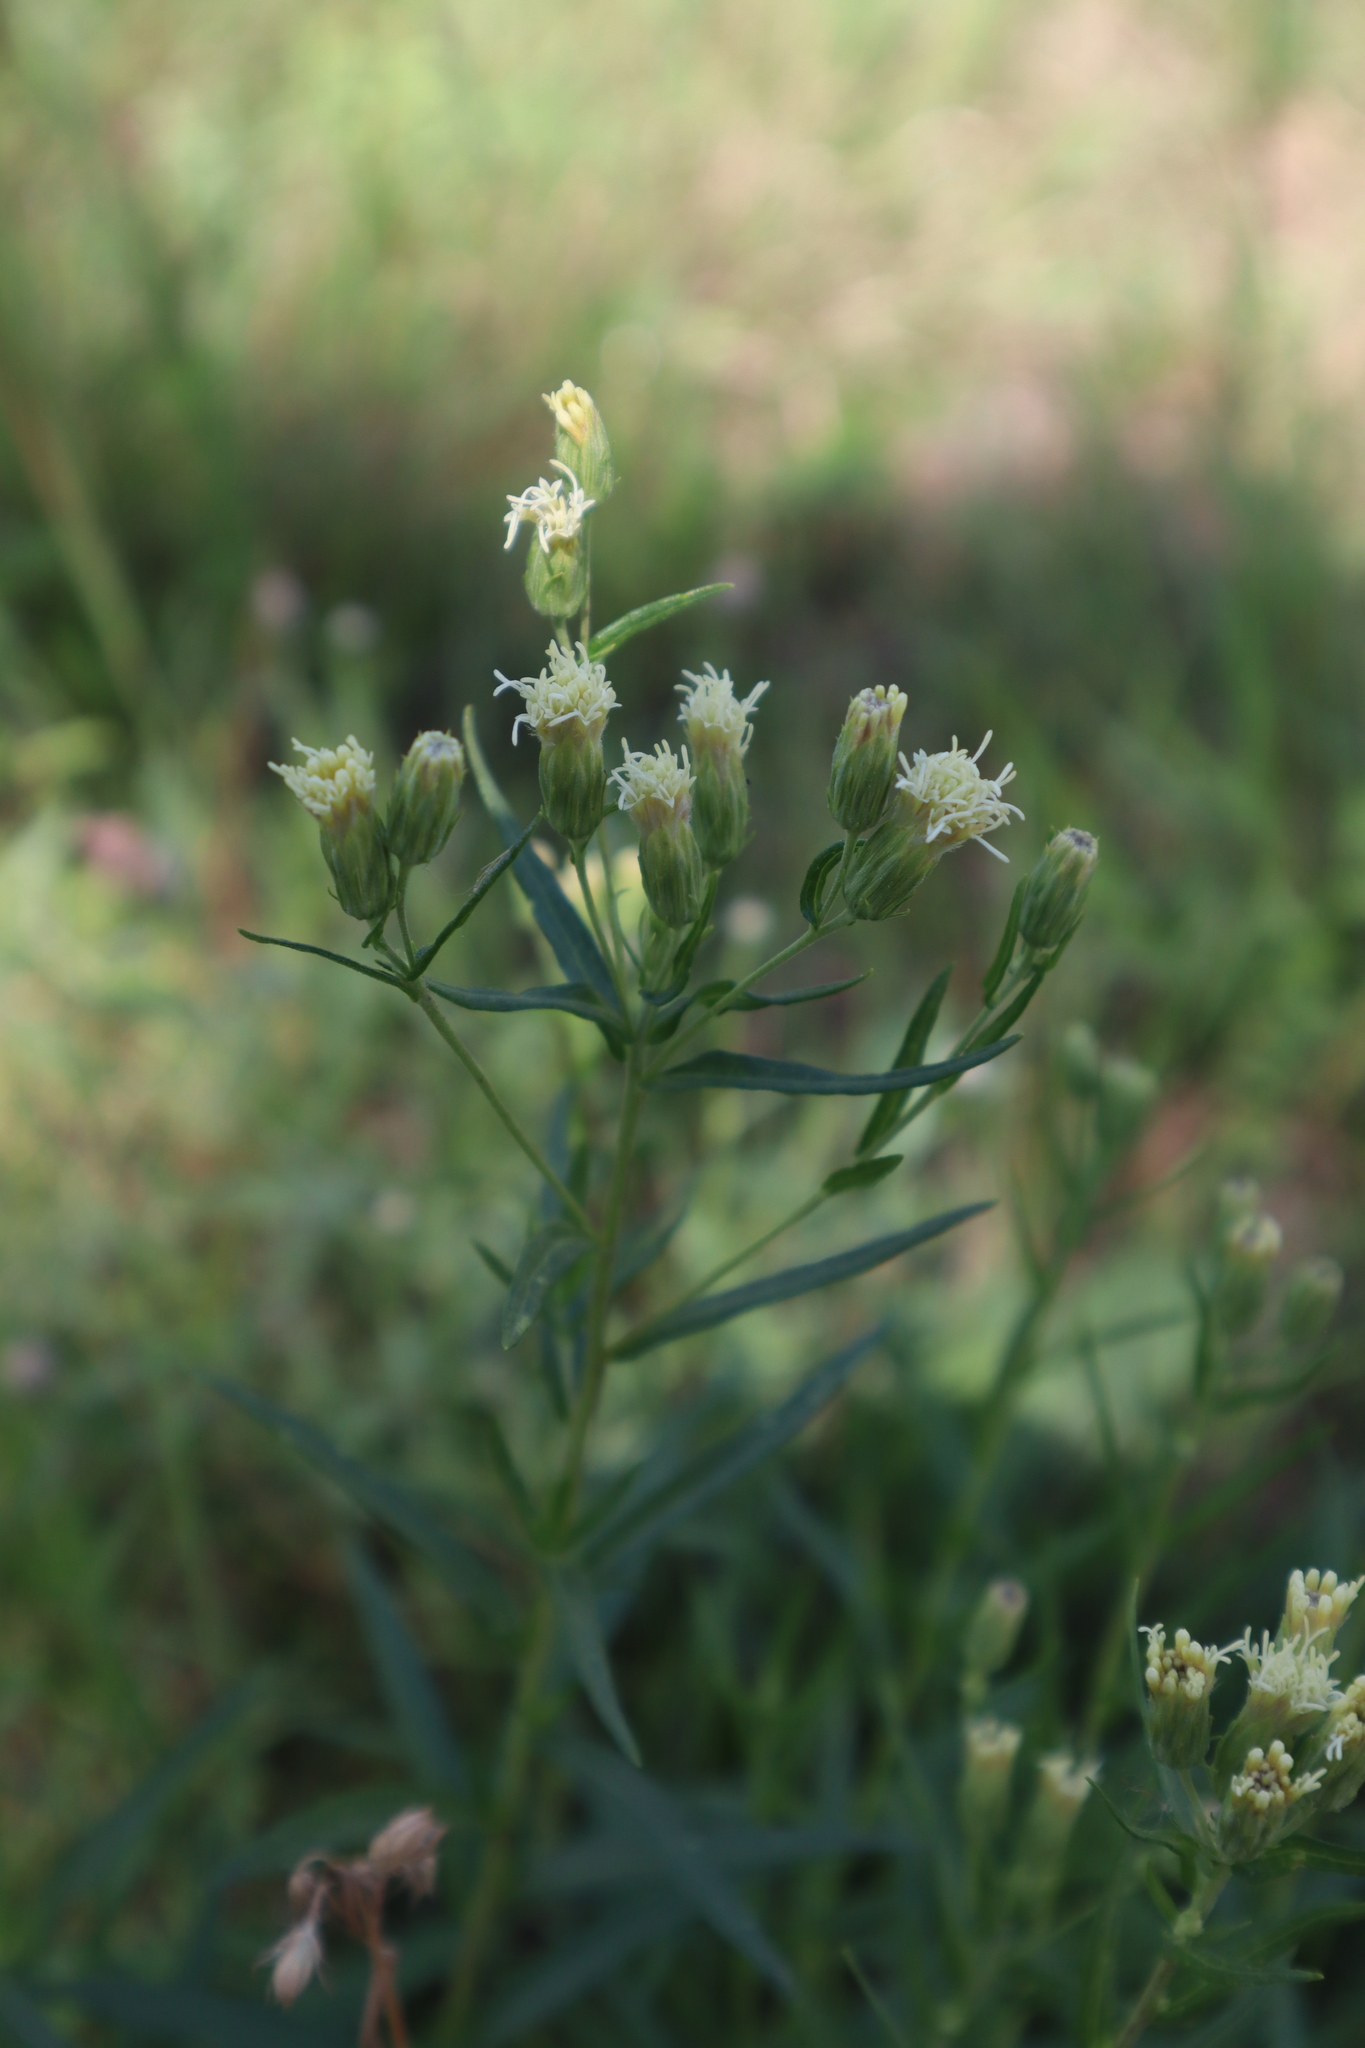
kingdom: Plantae
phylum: Tracheophyta
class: Magnoliopsida
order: Asterales
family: Asteraceae
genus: Brickellia
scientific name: Brickellia eupatorioides
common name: False boneset
